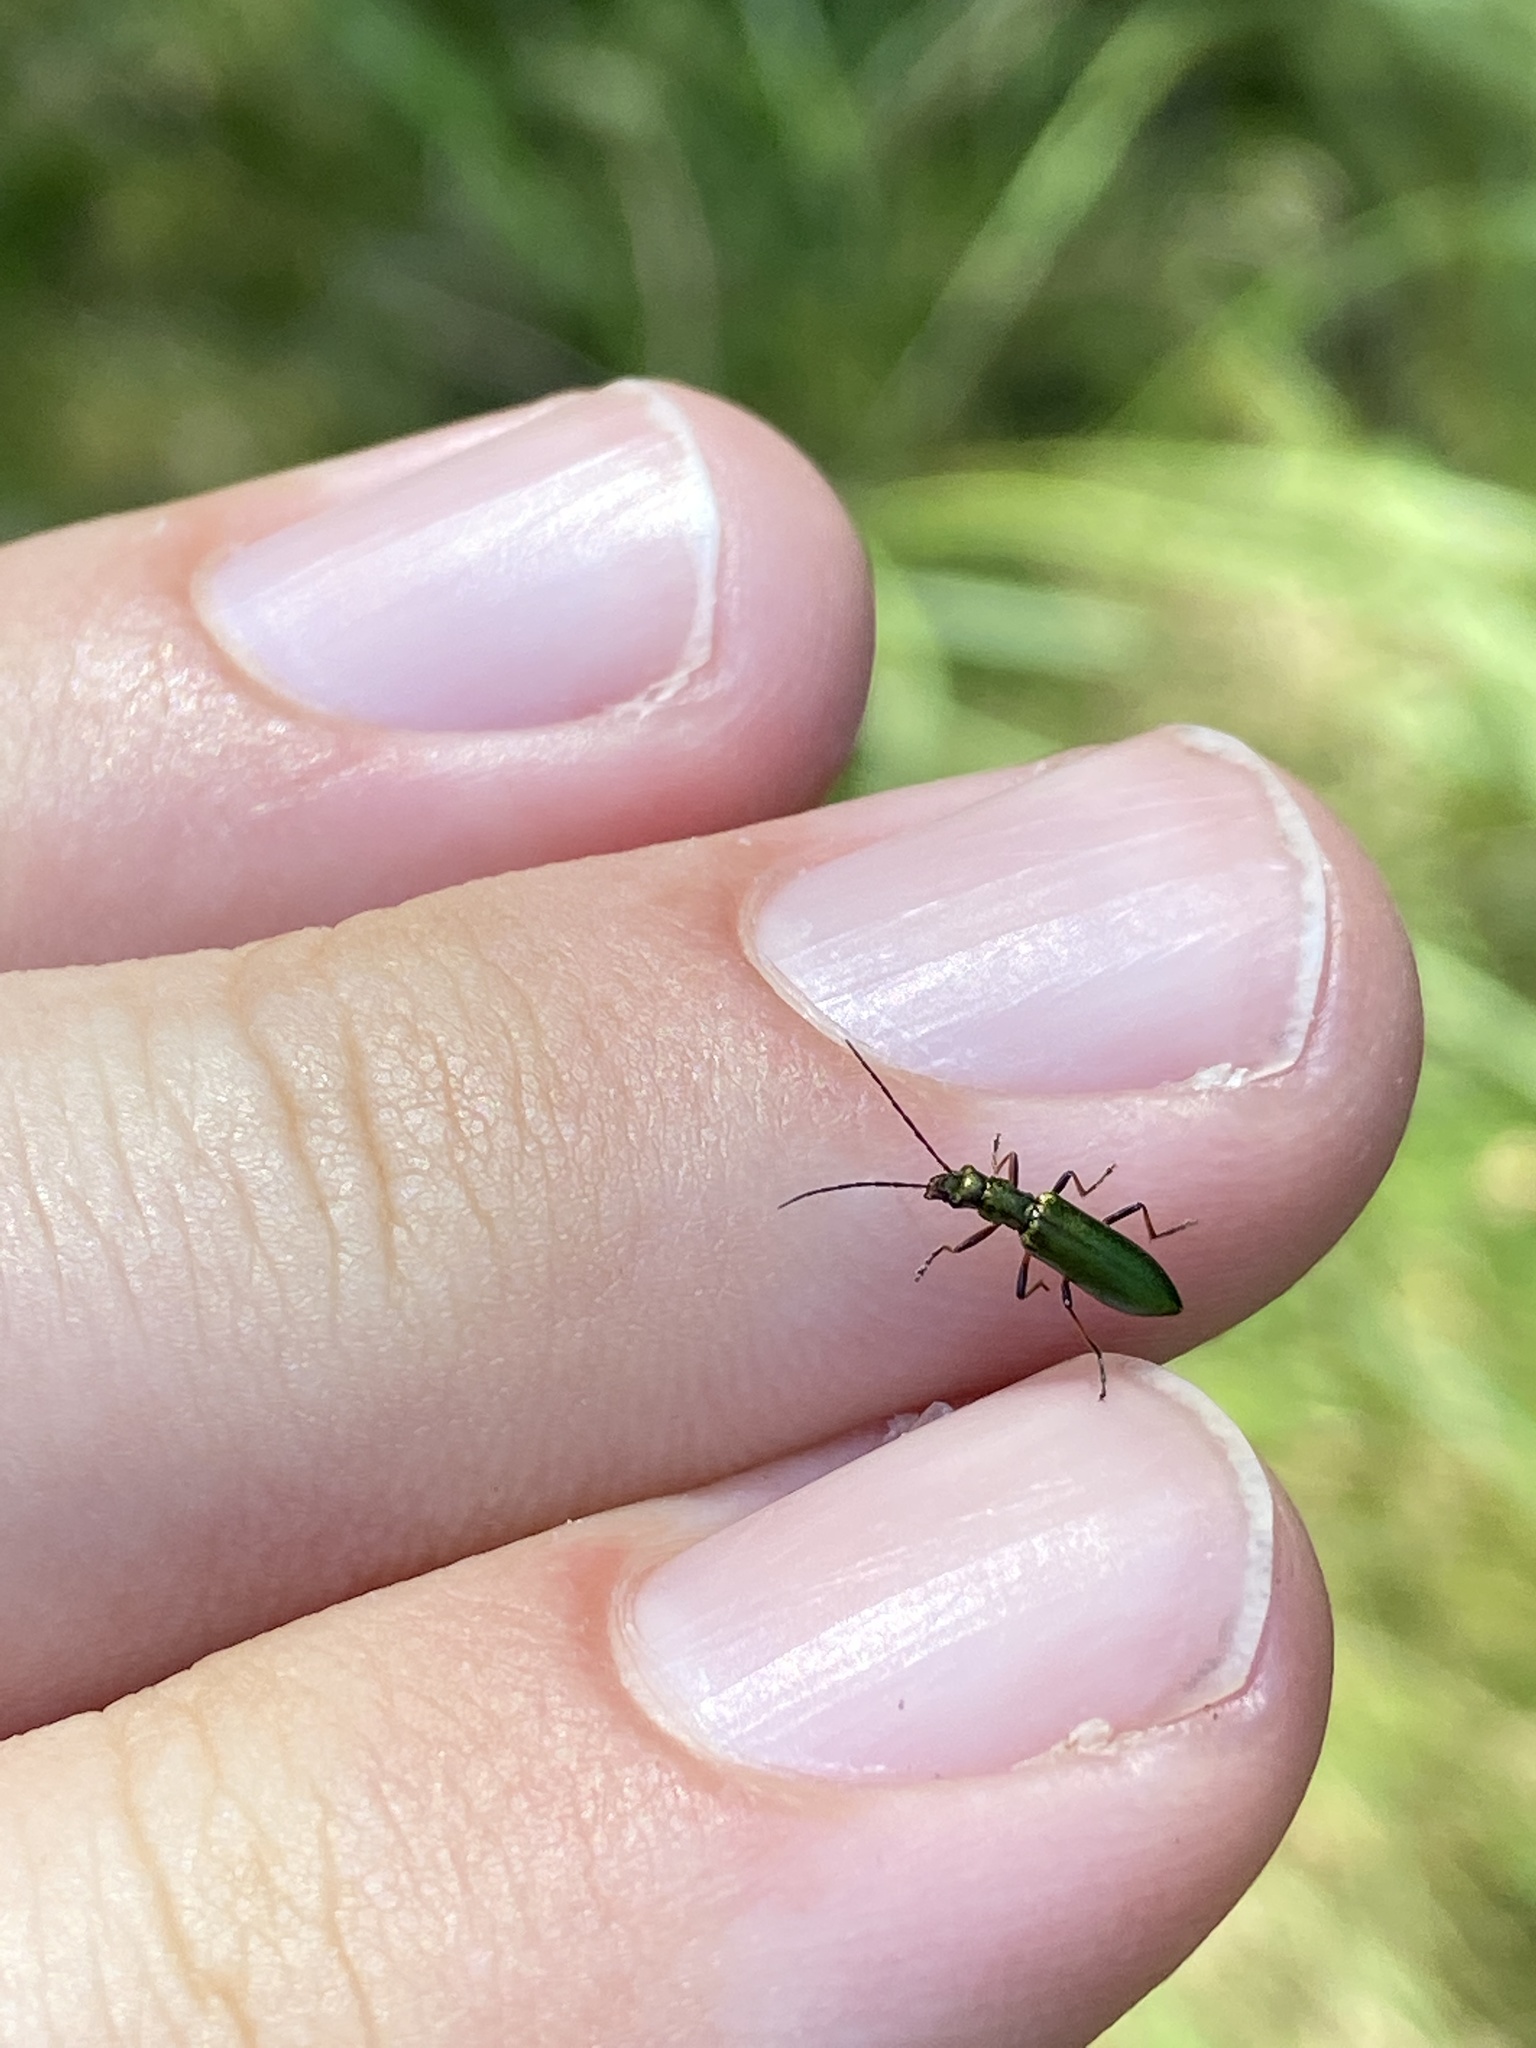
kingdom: Animalia
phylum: Arthropoda
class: Insecta
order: Coleoptera
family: Oedemeridae
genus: Chrysanthia
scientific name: Chrysanthia geniculata
